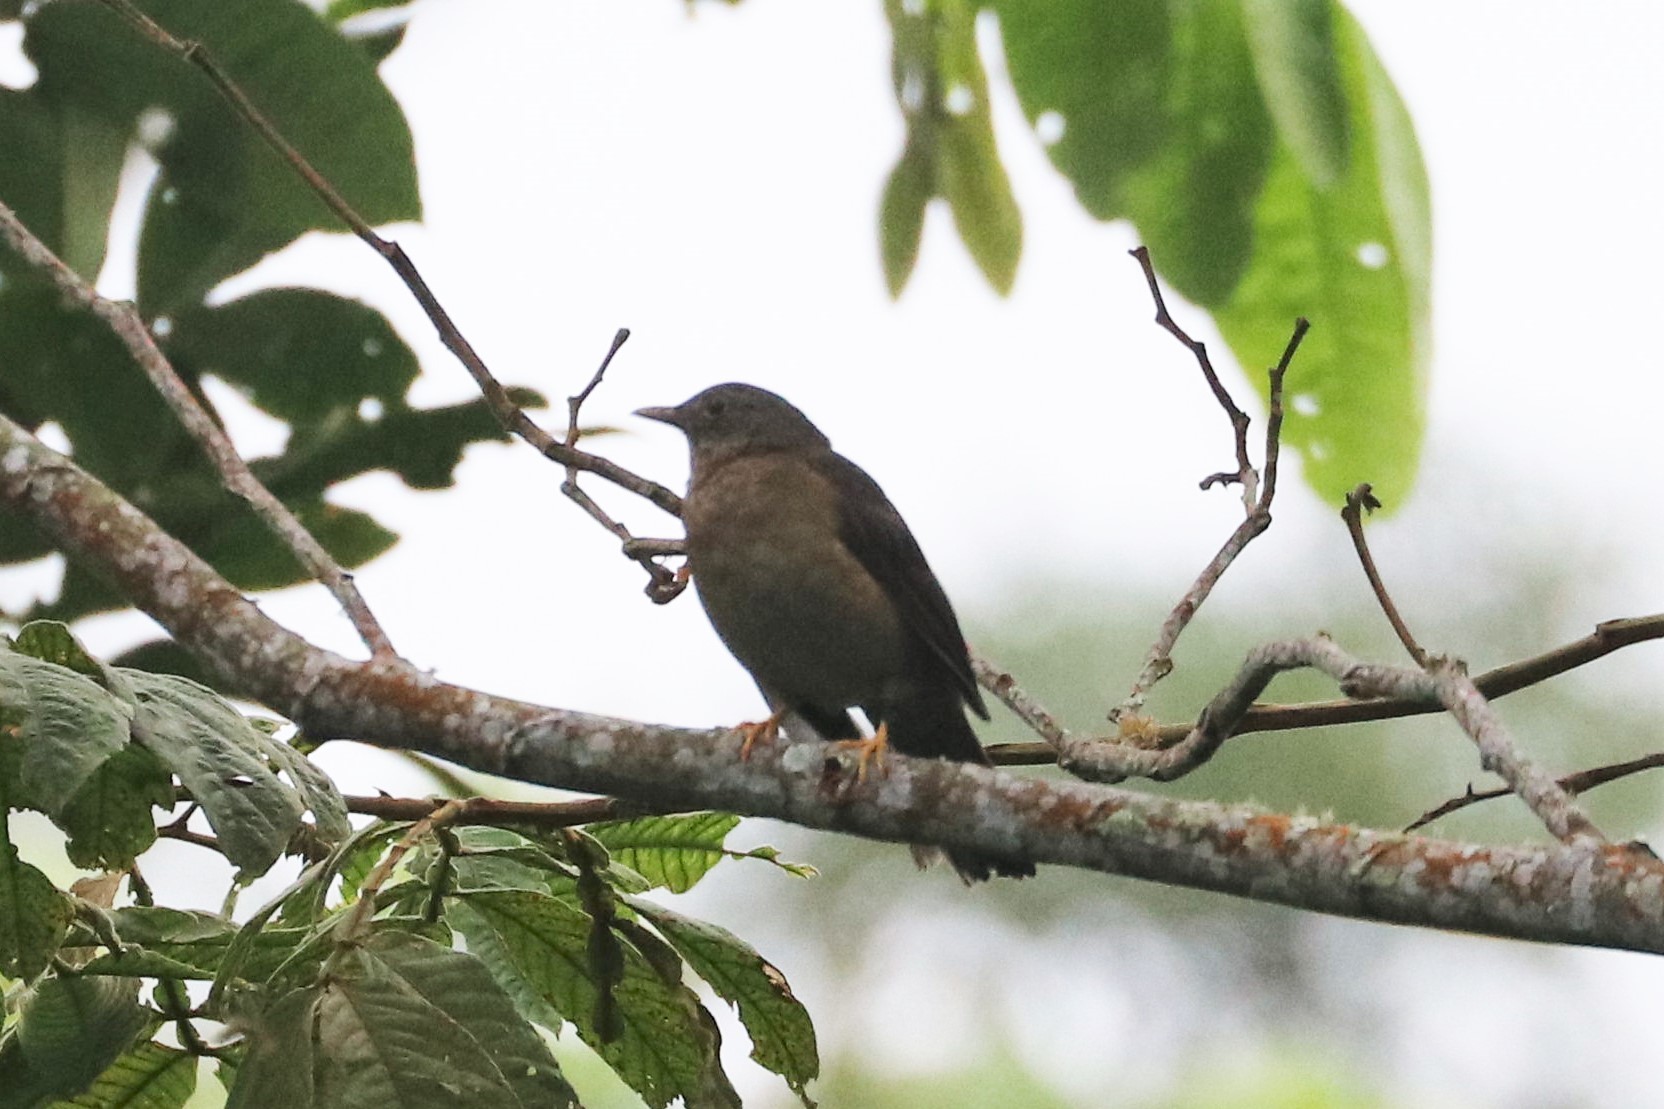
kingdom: Animalia
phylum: Chordata
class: Aves
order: Passeriformes
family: Turdidae
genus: Turdus
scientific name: Turdus flavipes
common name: Yellow-legged thrush
